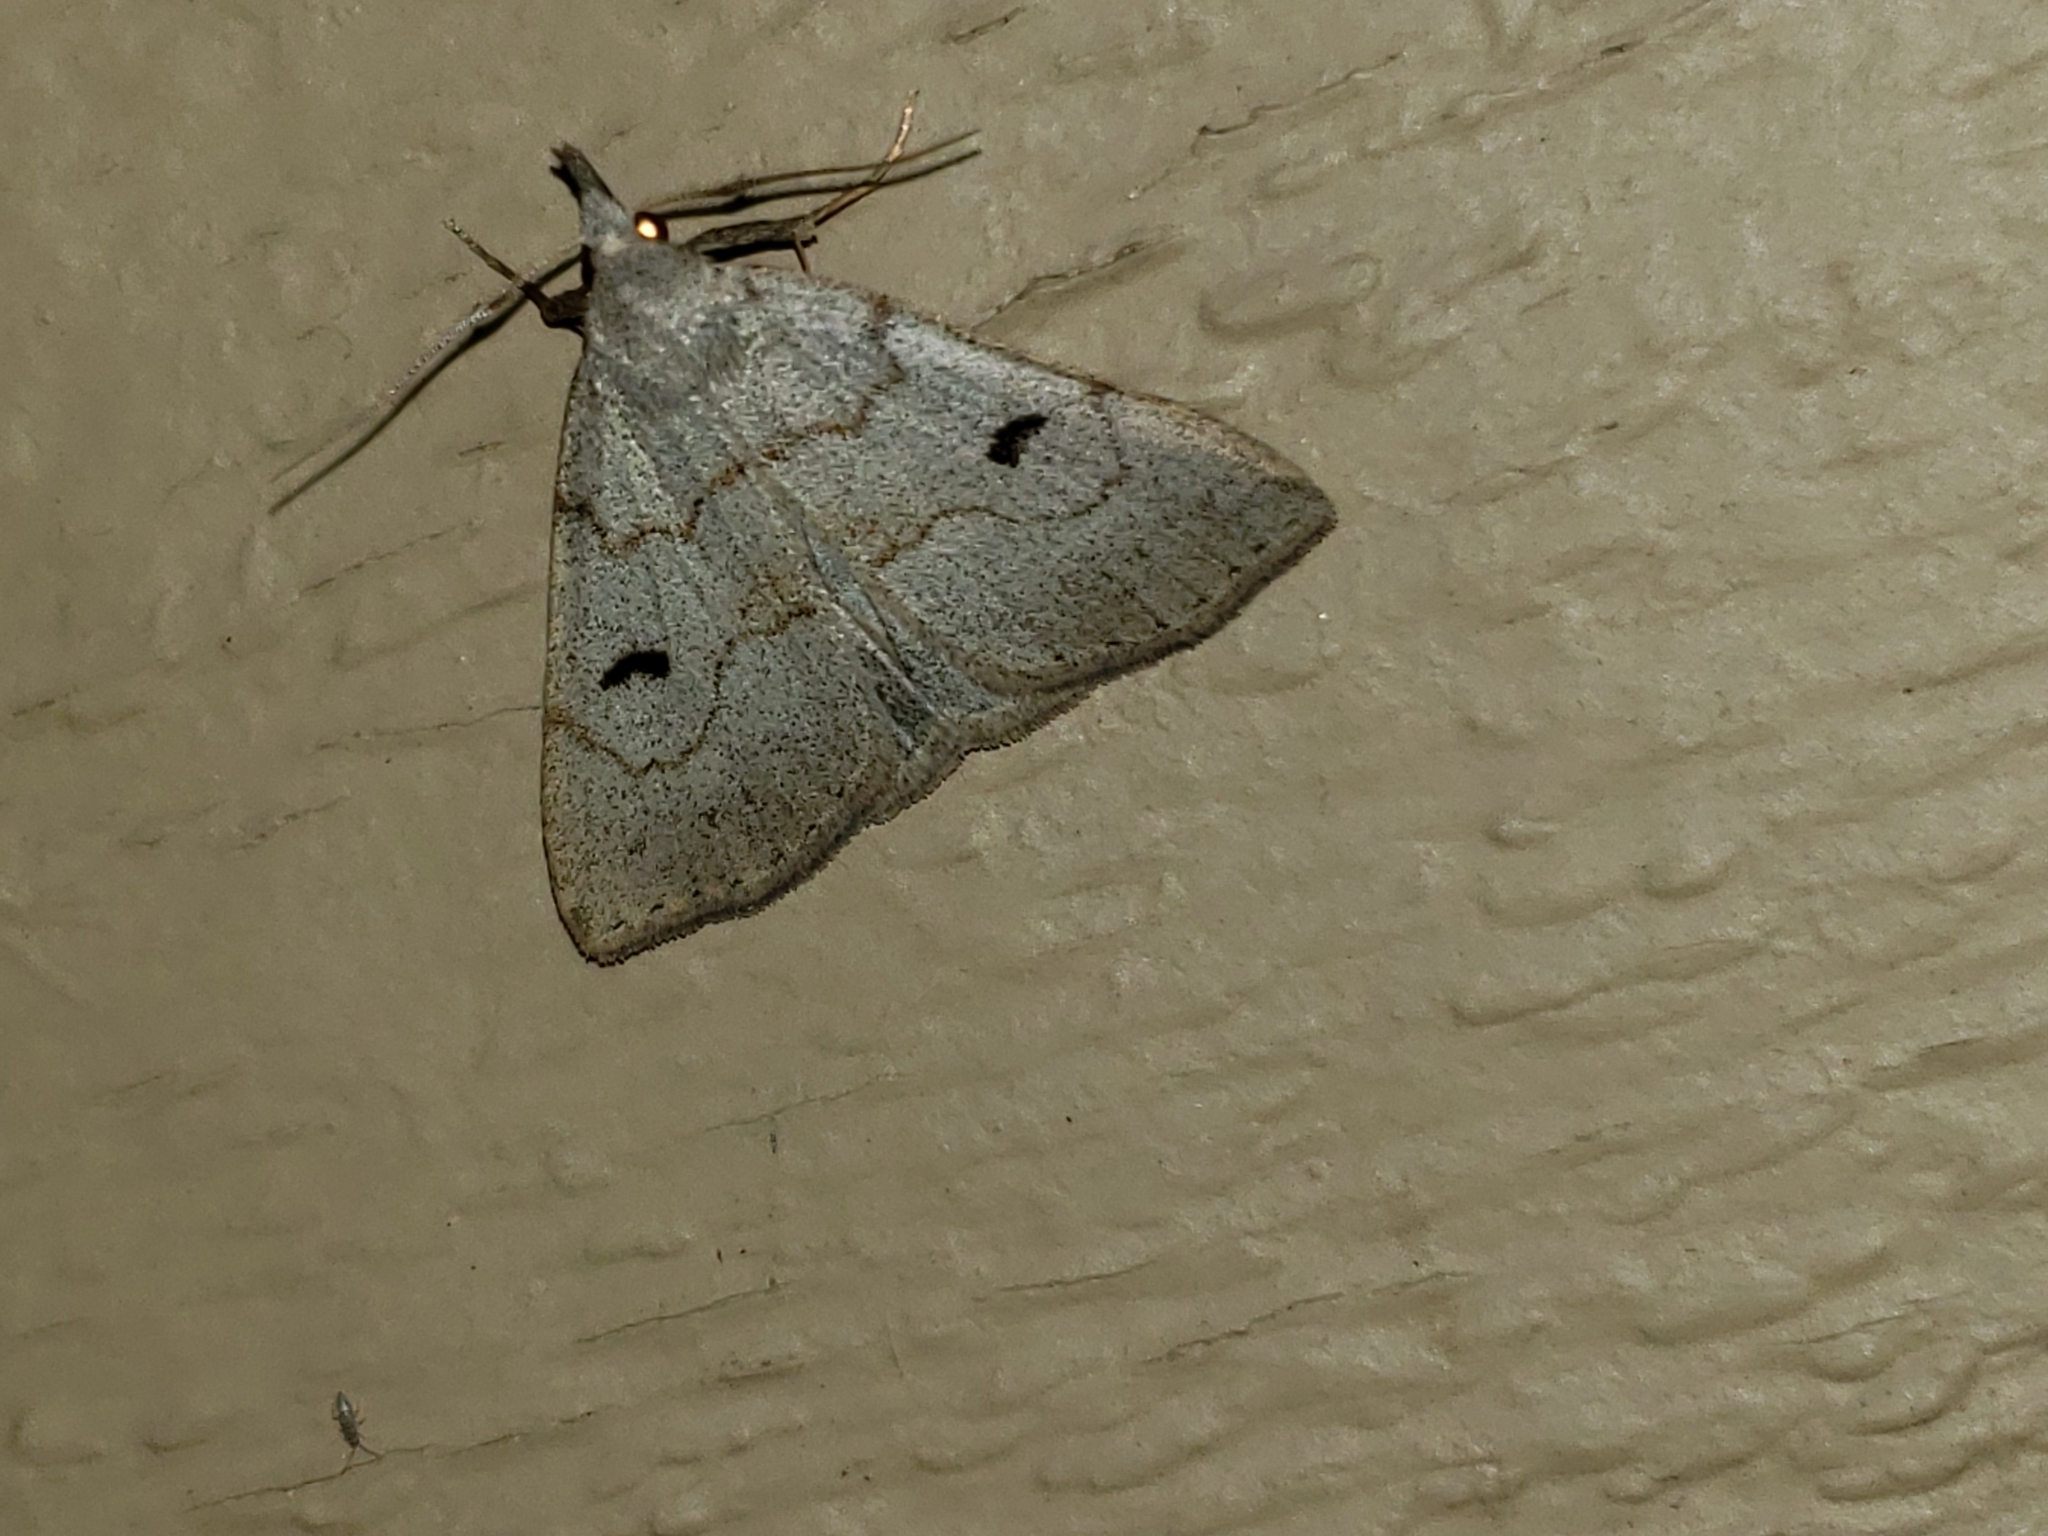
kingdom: Animalia
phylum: Arthropoda
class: Insecta
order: Lepidoptera
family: Erebidae
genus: Macrochilo
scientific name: Macrochilo morbidalis
